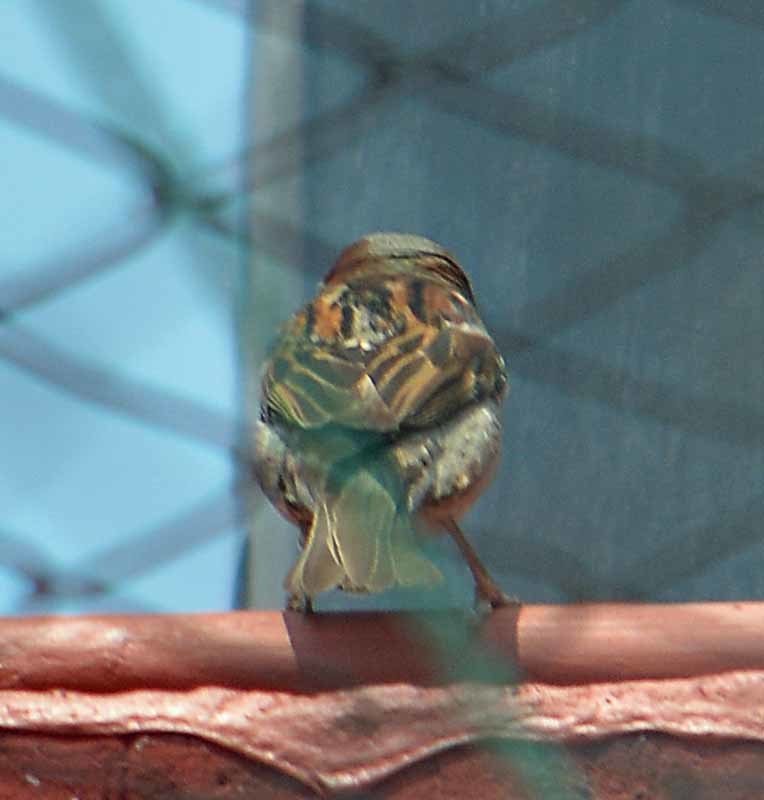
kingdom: Animalia
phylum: Chordata
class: Aves
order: Passeriformes
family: Passeridae
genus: Passer
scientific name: Passer domesticus
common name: House sparrow
